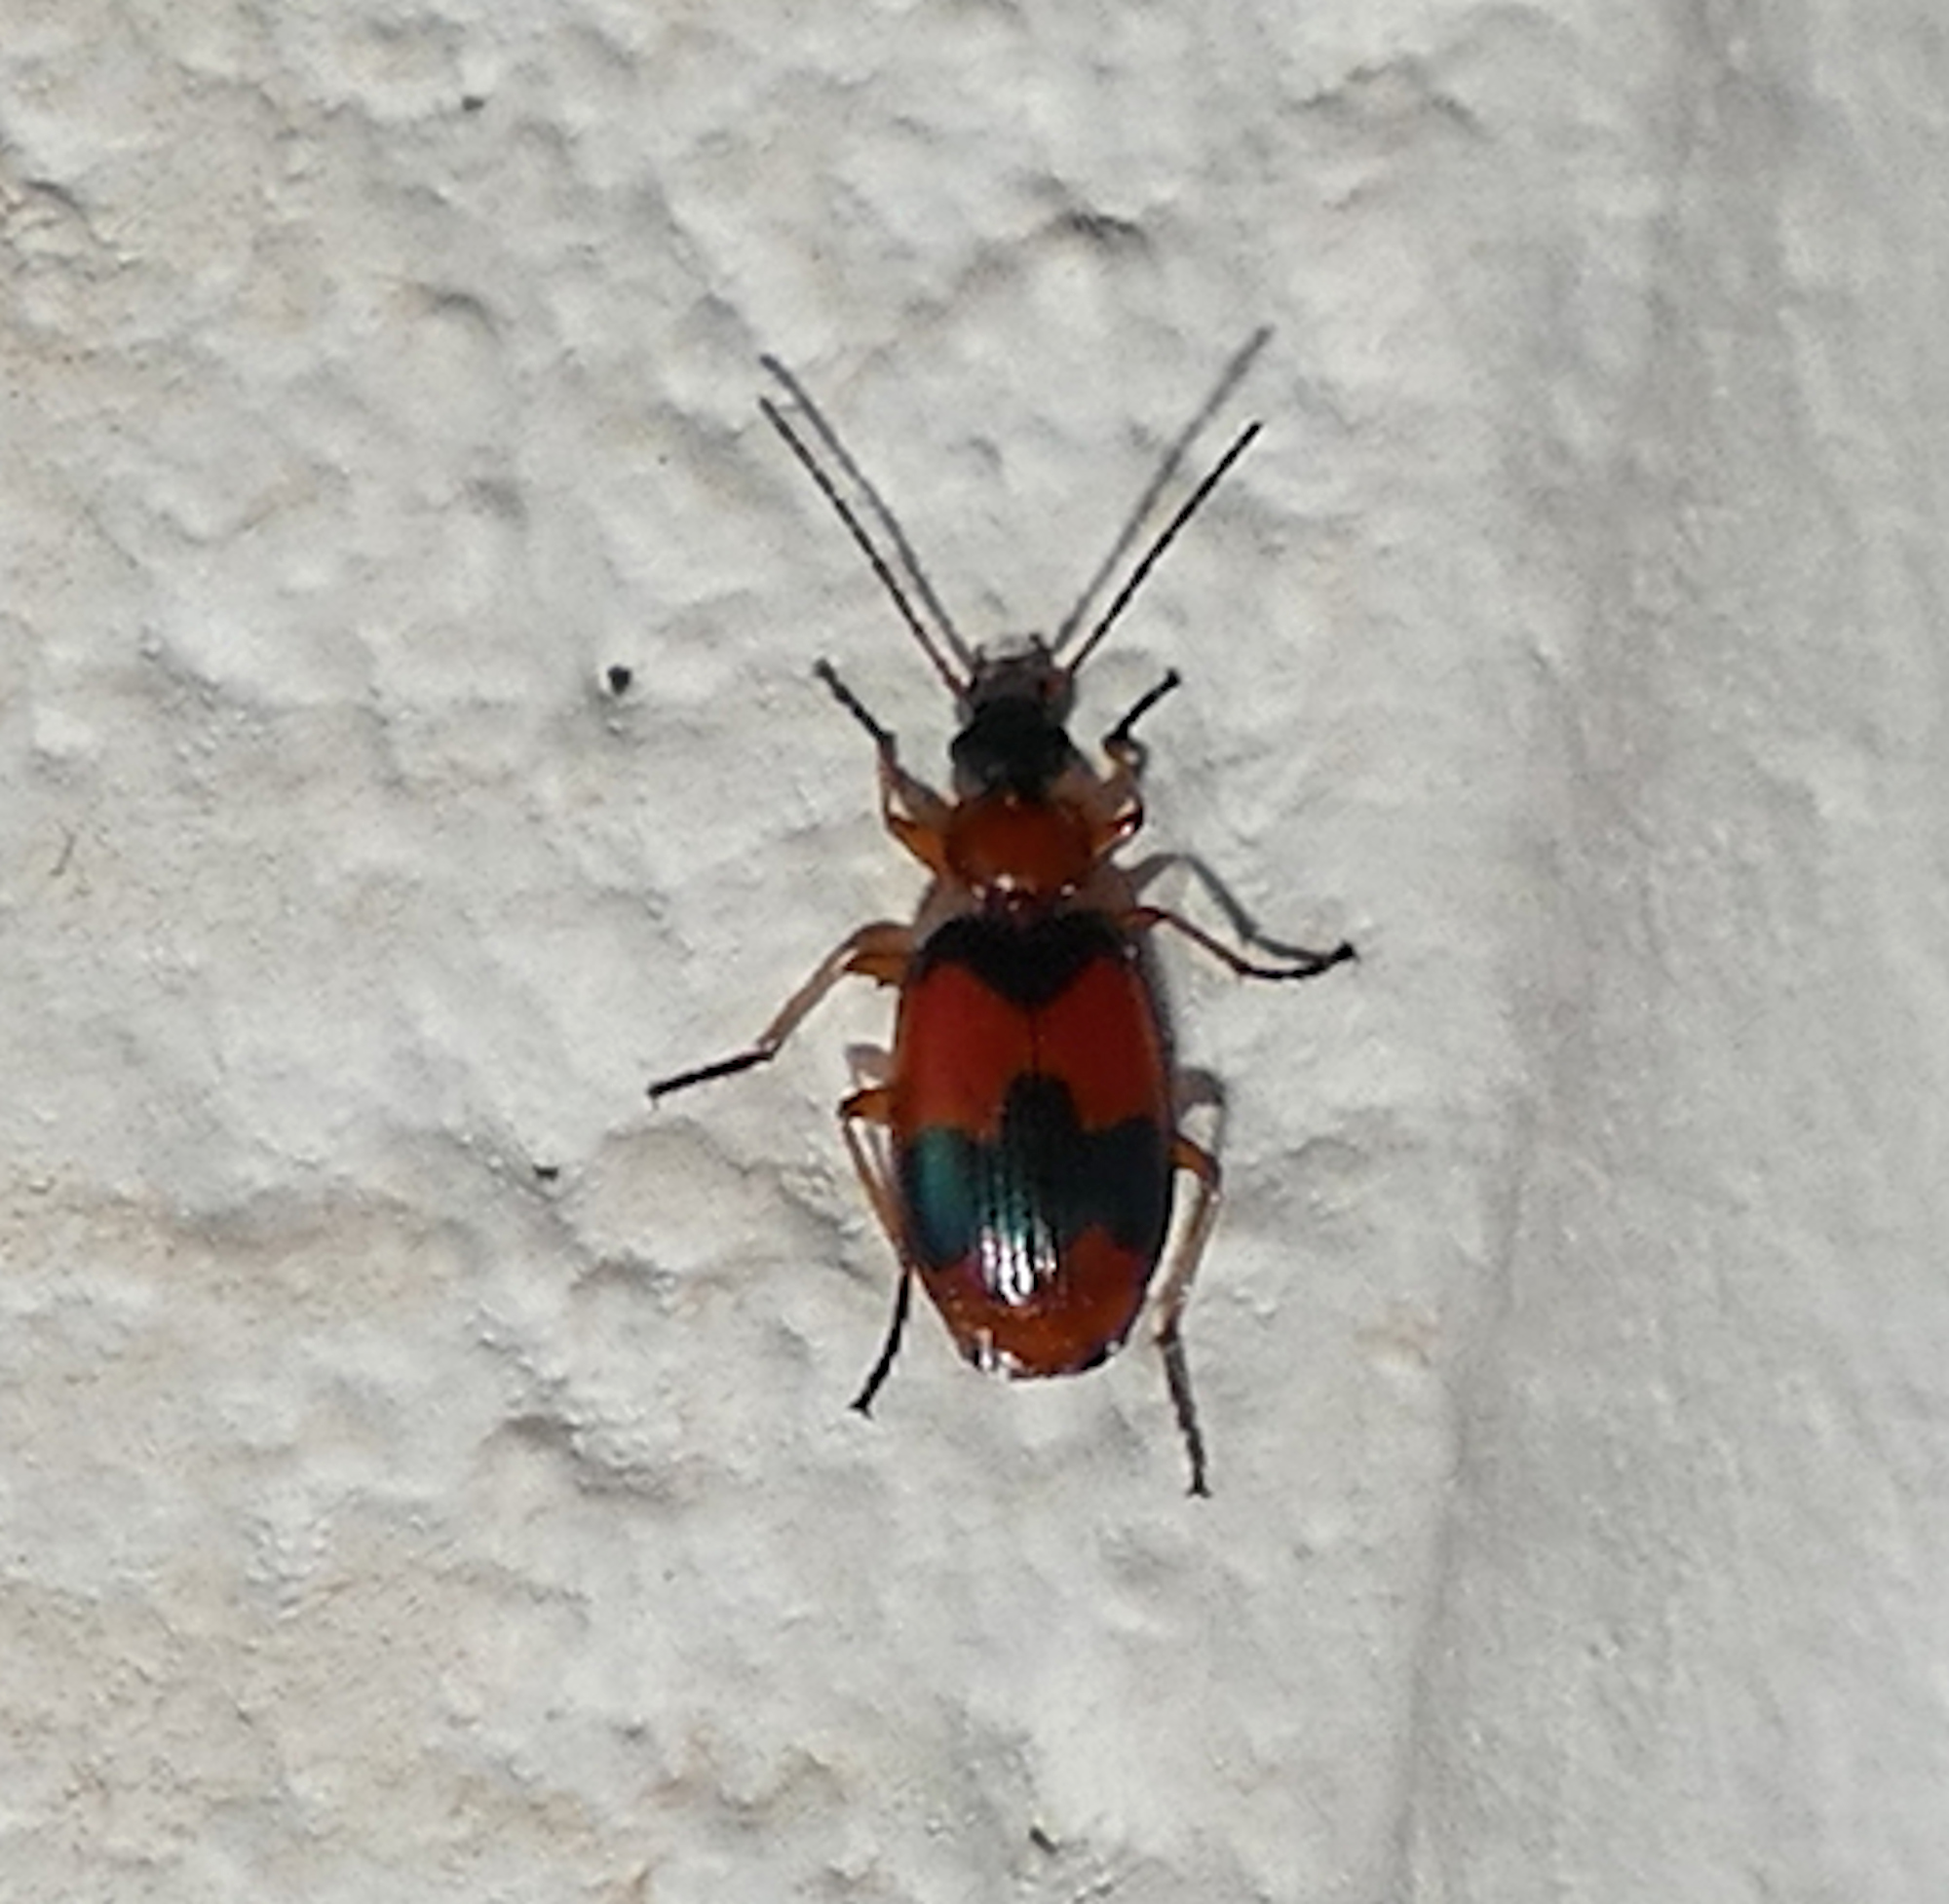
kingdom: Animalia
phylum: Arthropoda
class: Insecta
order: Coleoptera
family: Carabidae
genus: Lebia
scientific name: Lebia pulchella
